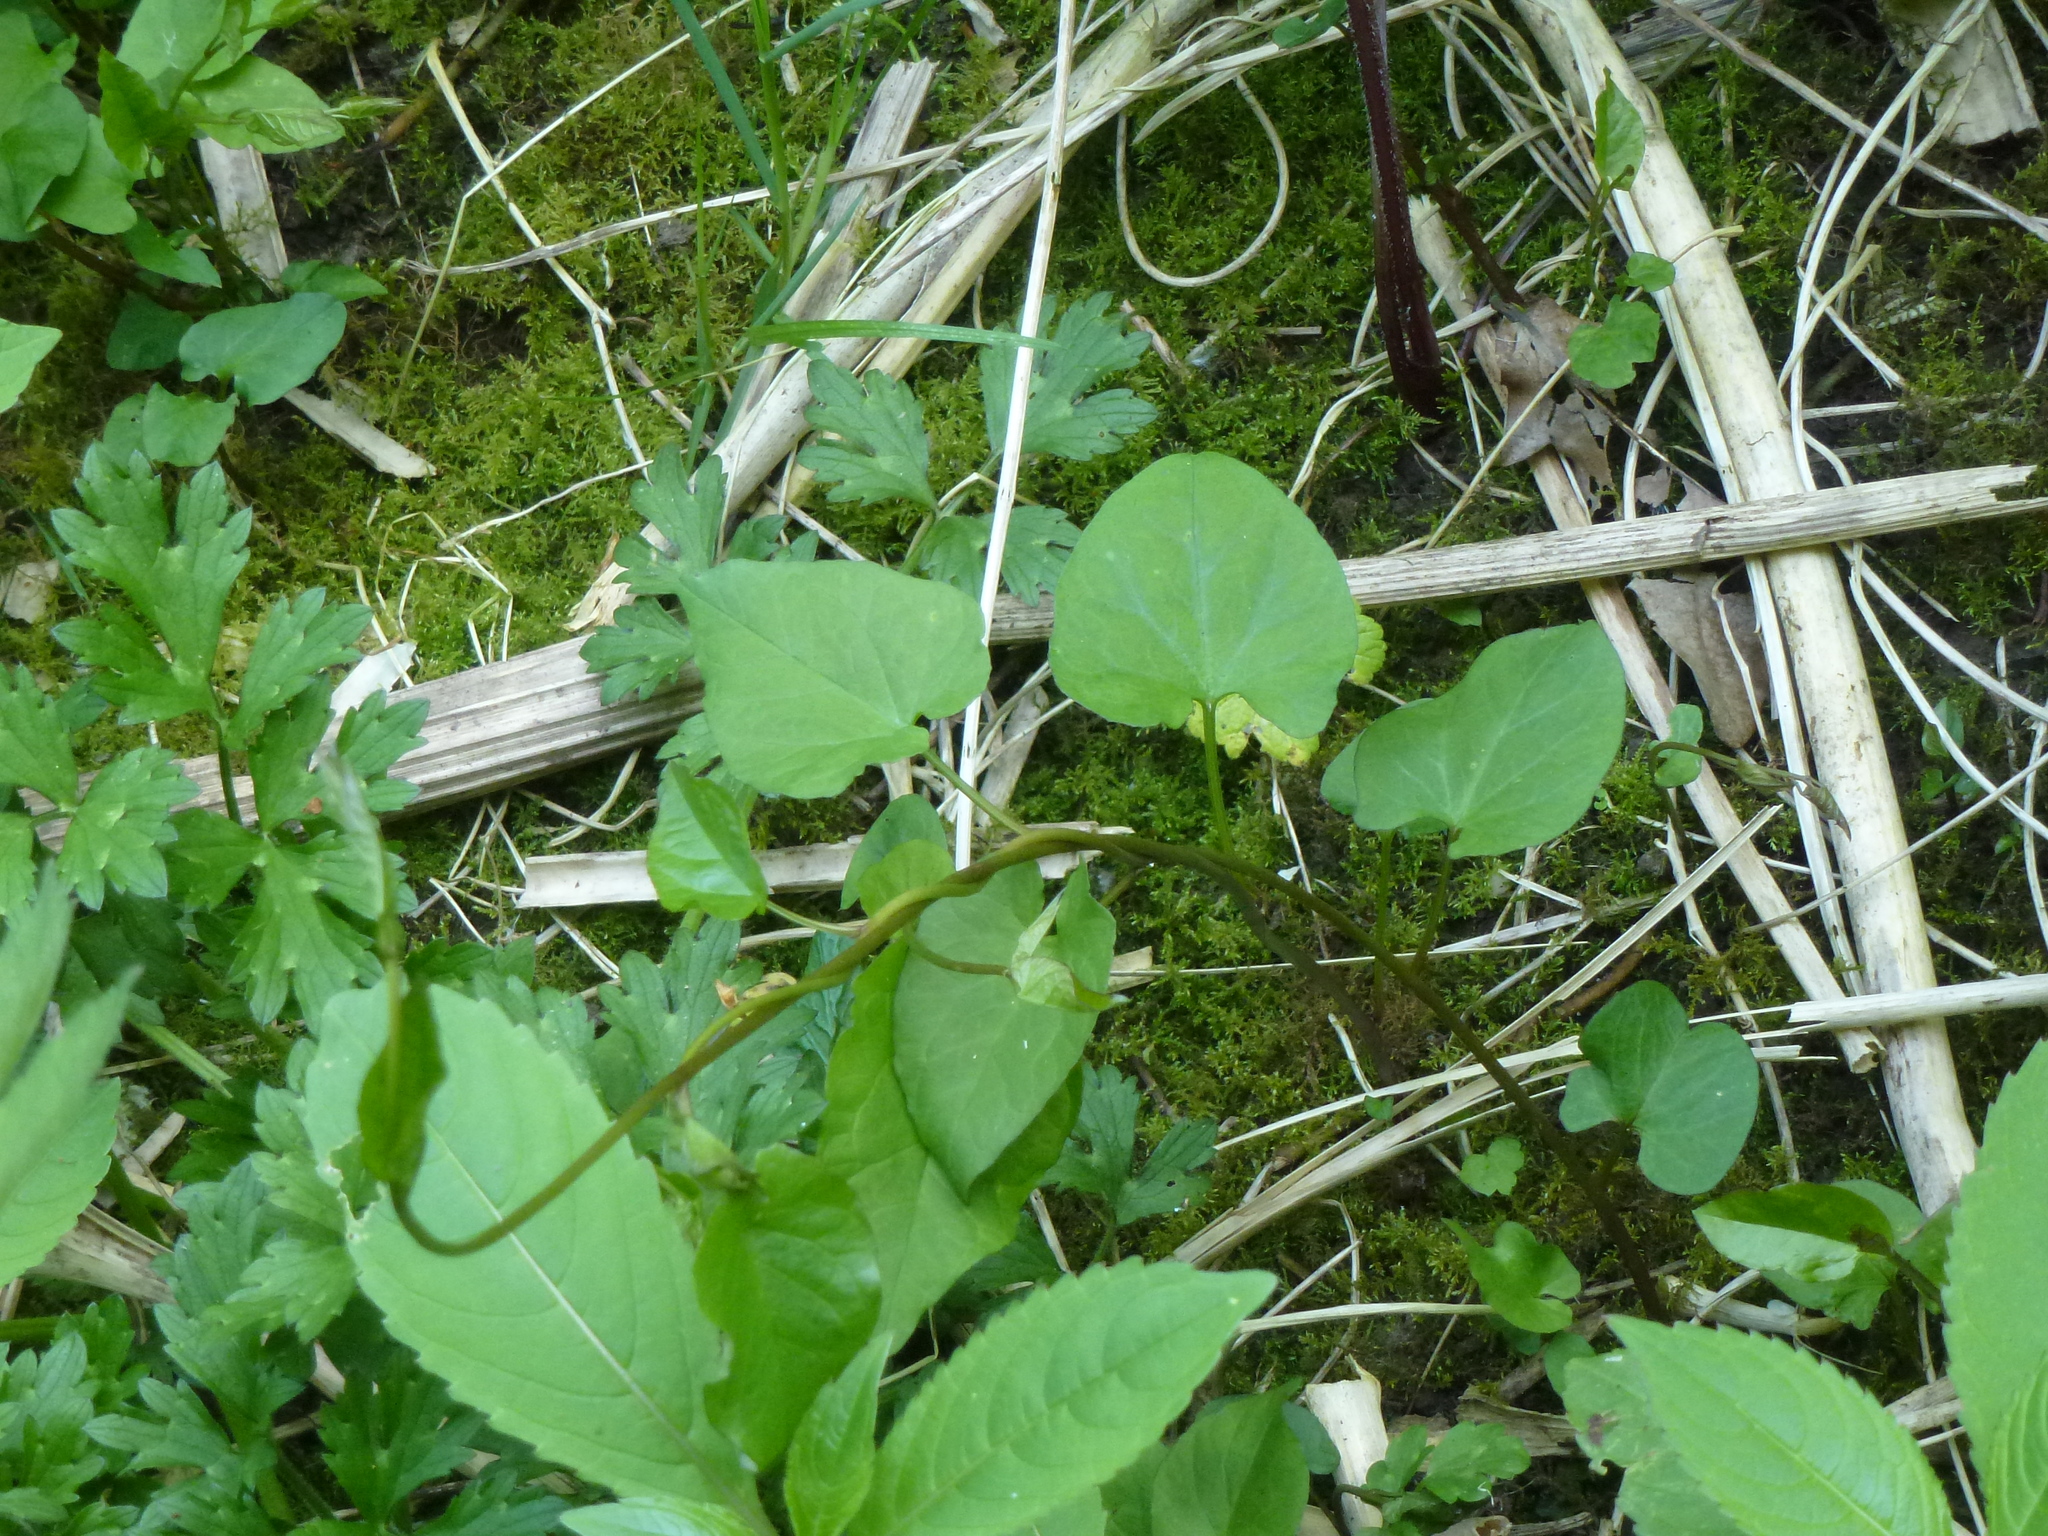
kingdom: Plantae
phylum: Tracheophyta
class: Magnoliopsida
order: Solanales
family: Convolvulaceae
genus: Calystegia
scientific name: Calystegia
